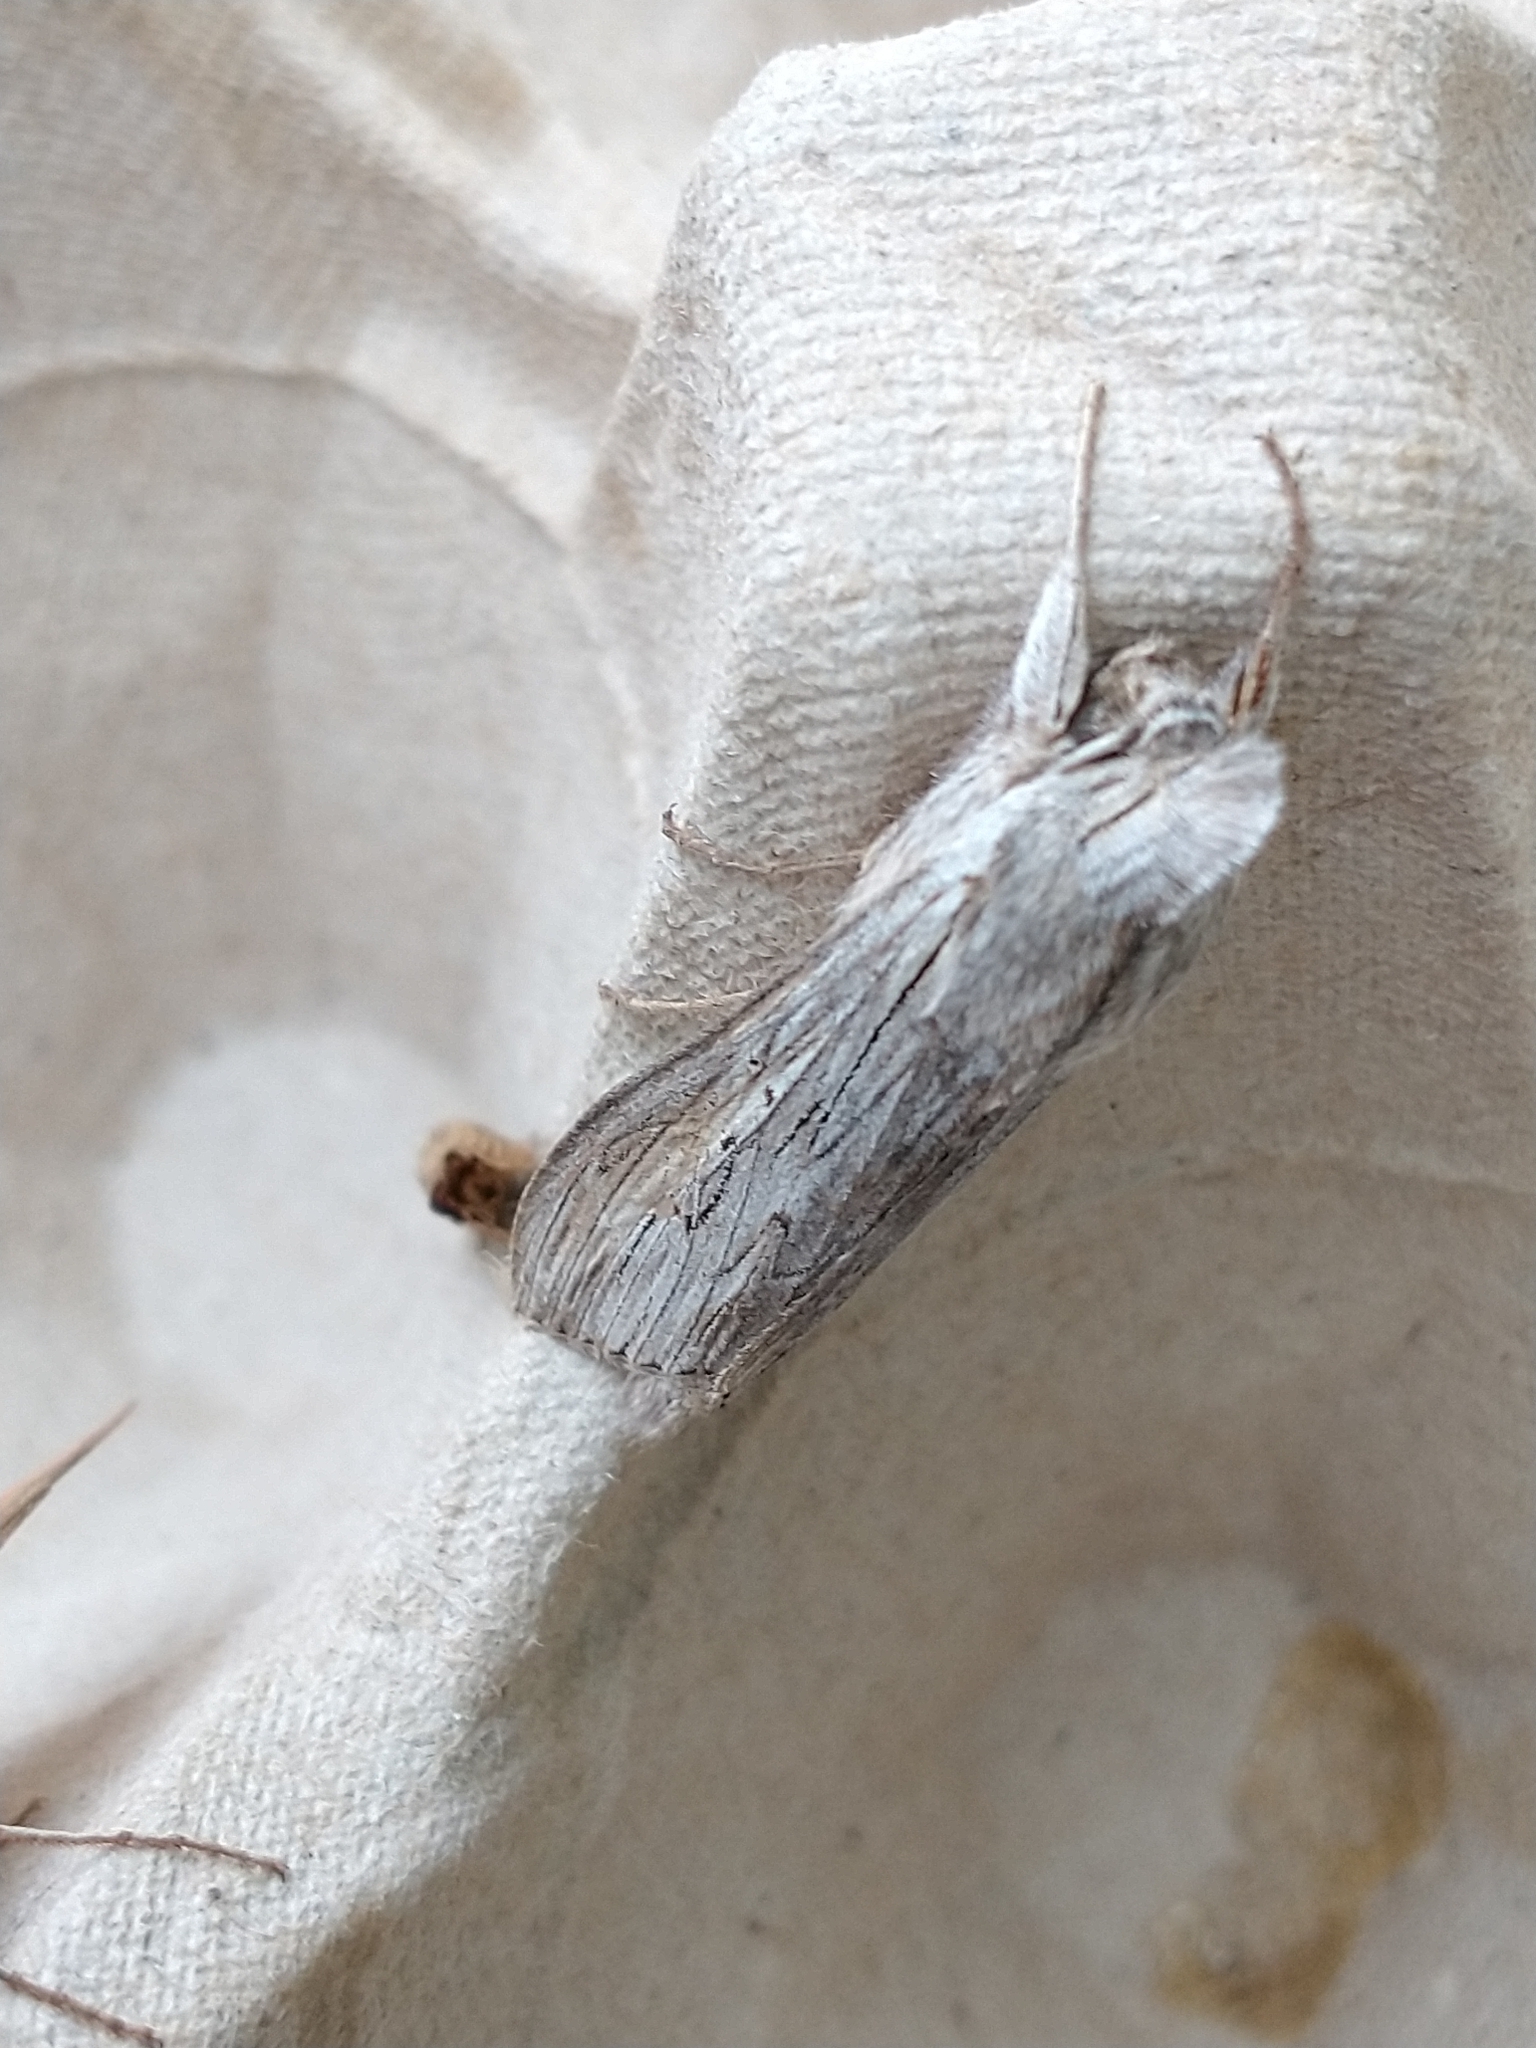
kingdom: Animalia
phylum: Arthropoda
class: Insecta
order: Lepidoptera
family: Noctuidae
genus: Cucullia
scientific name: Cucullia umbratica
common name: Shark
